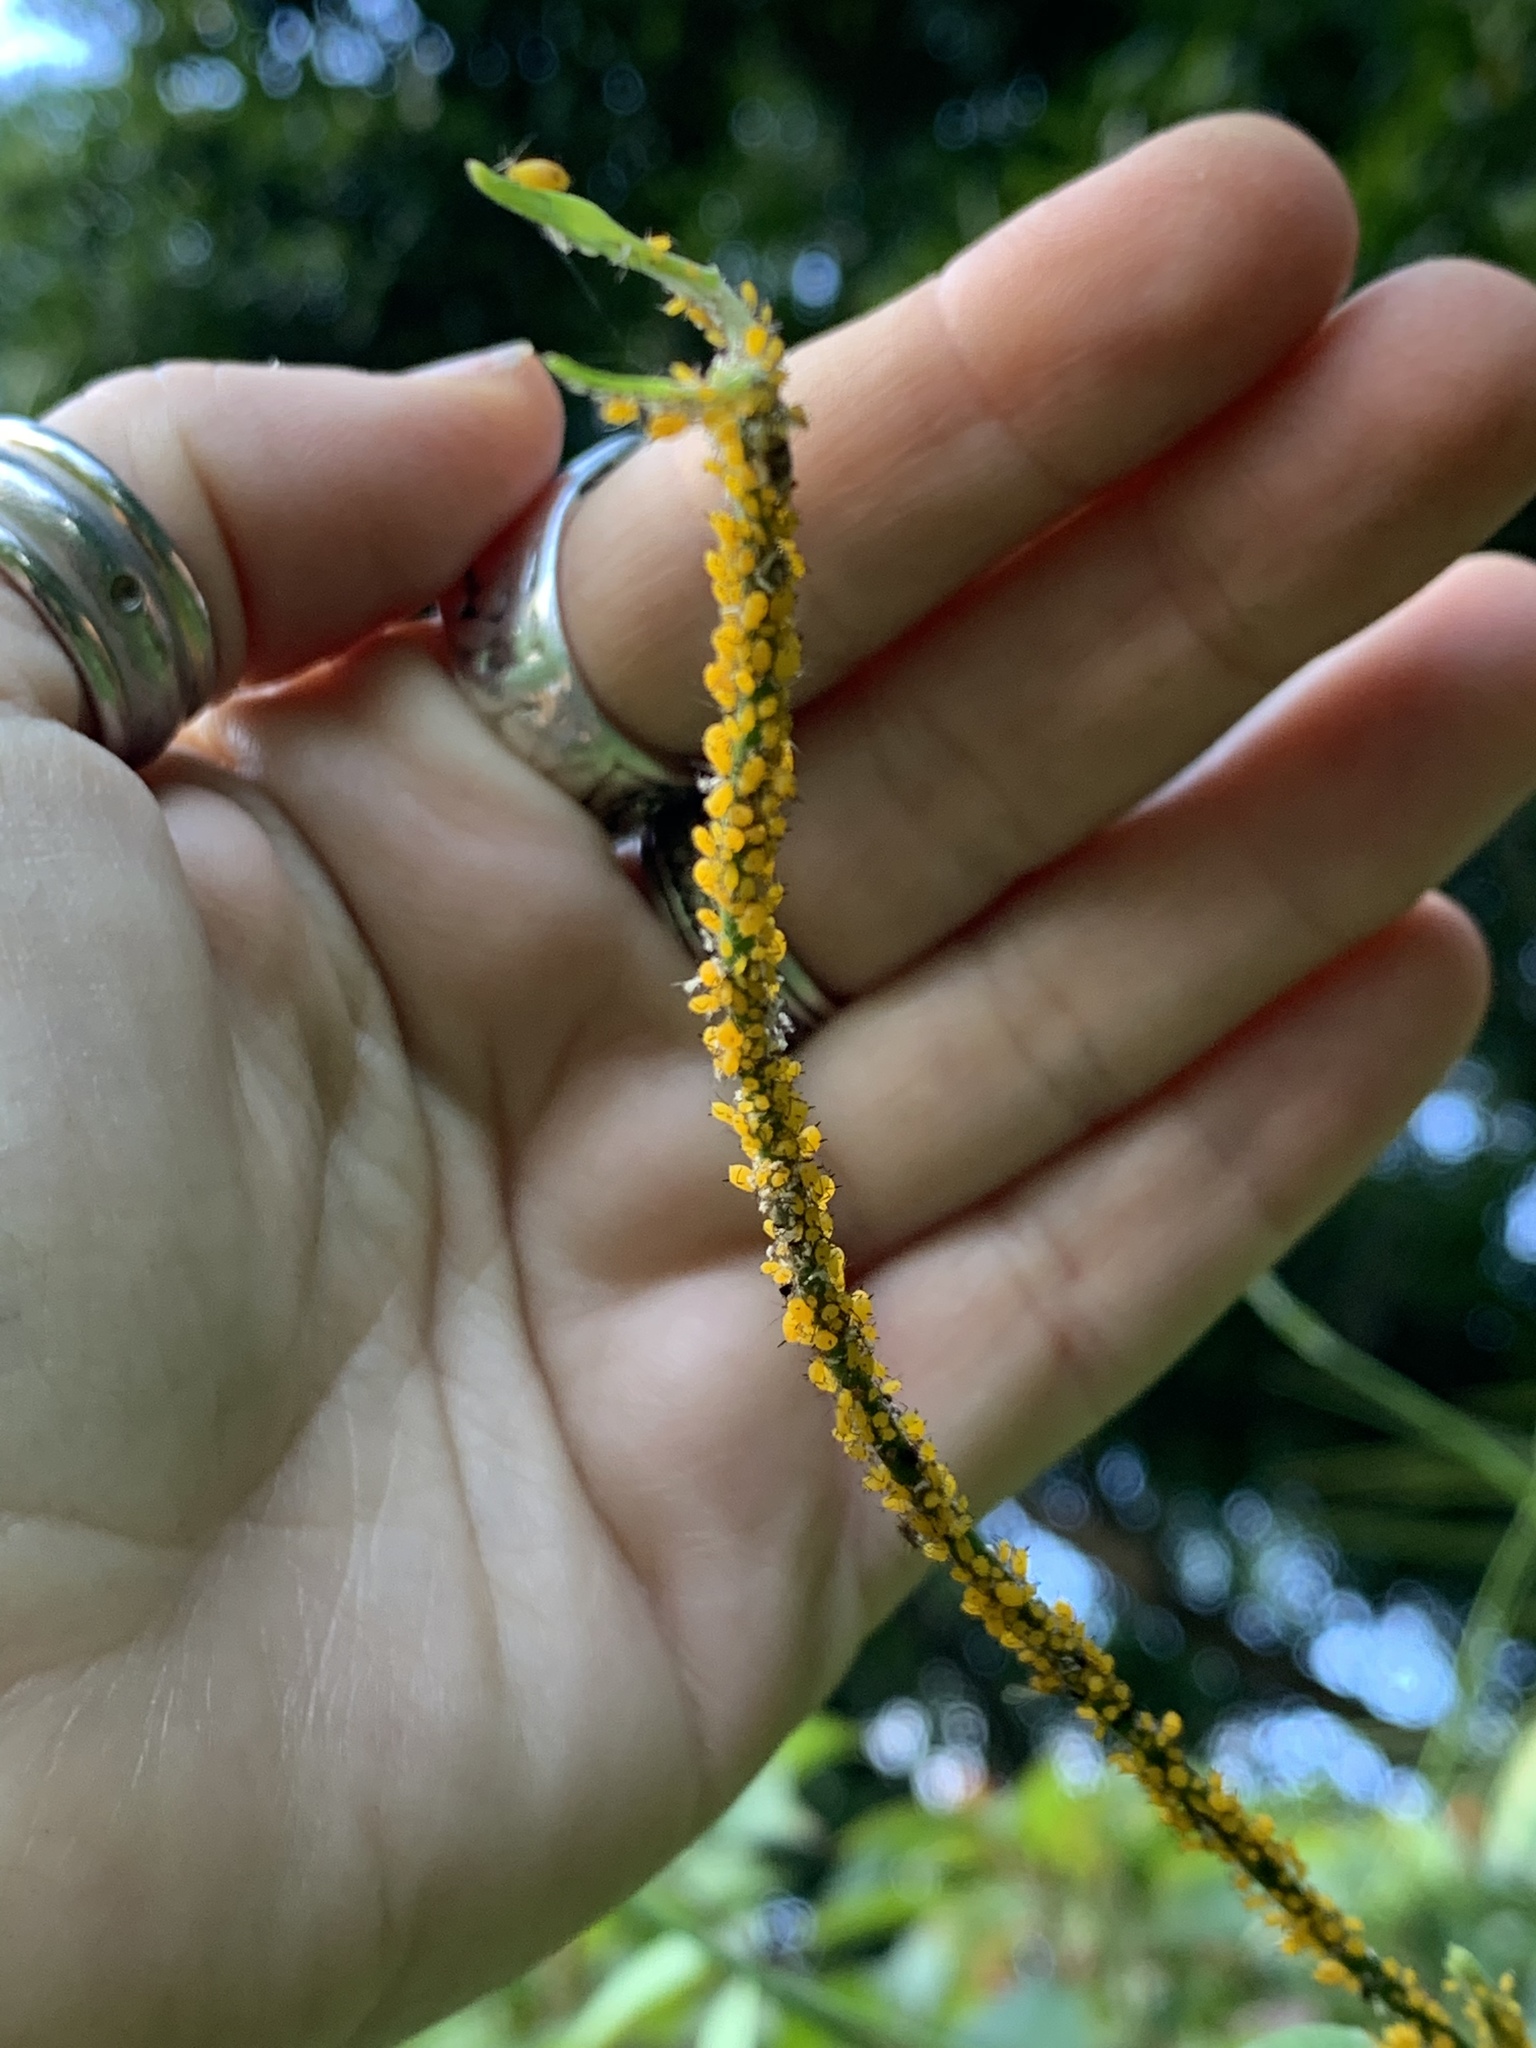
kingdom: Animalia
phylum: Arthropoda
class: Insecta
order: Hemiptera
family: Aphididae
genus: Aphis
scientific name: Aphis nerii
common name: Oleander aphid
